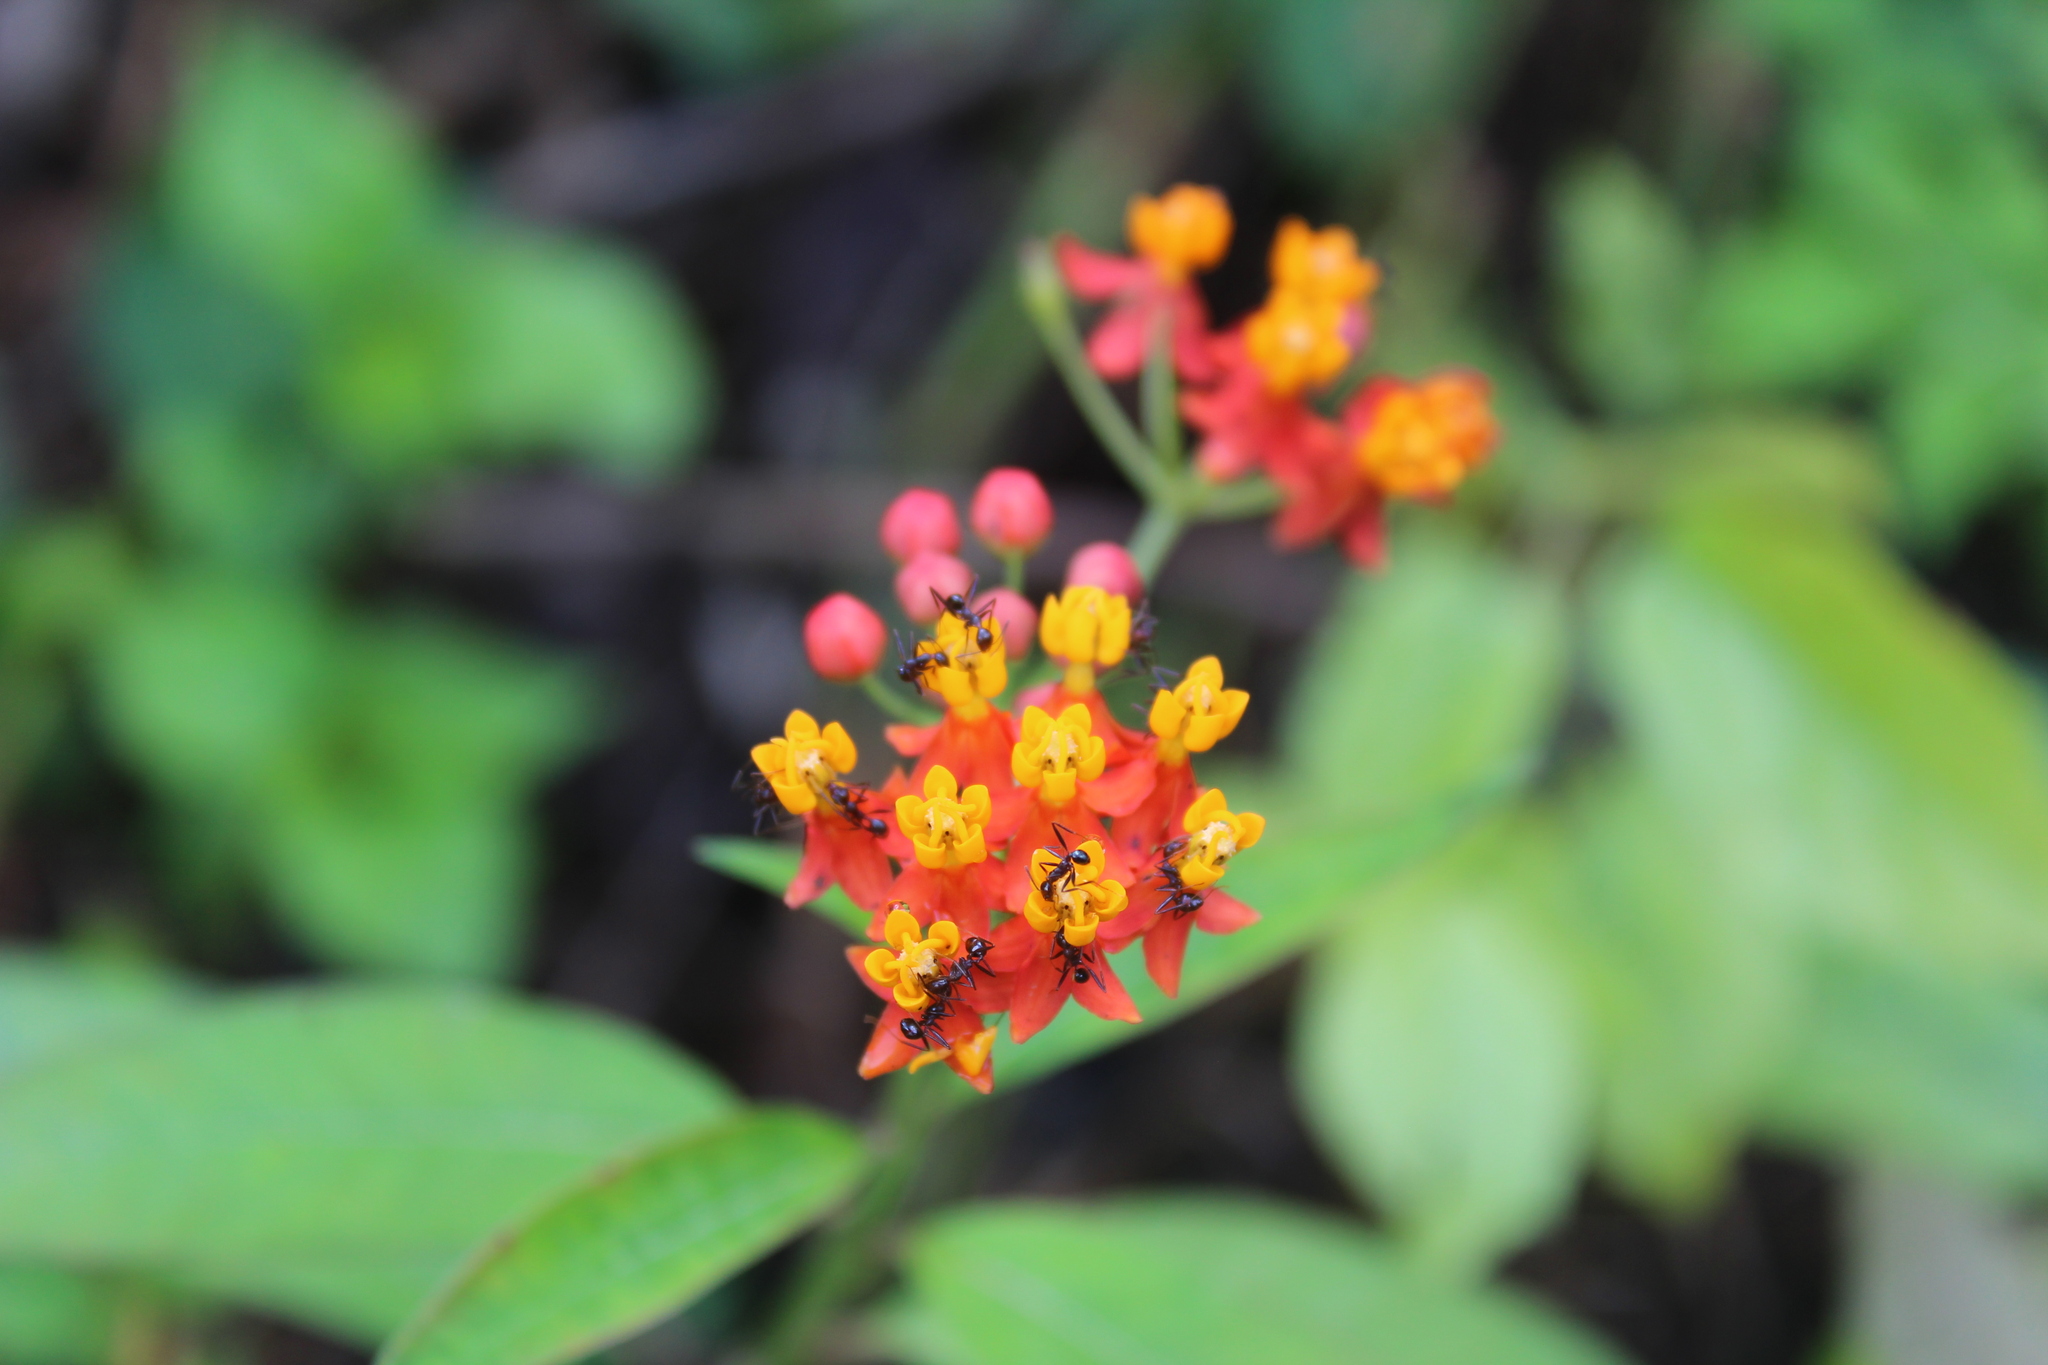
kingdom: Plantae
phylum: Tracheophyta
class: Magnoliopsida
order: Gentianales
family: Apocynaceae
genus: Asclepias
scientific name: Asclepias curassavica
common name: Bloodflower
